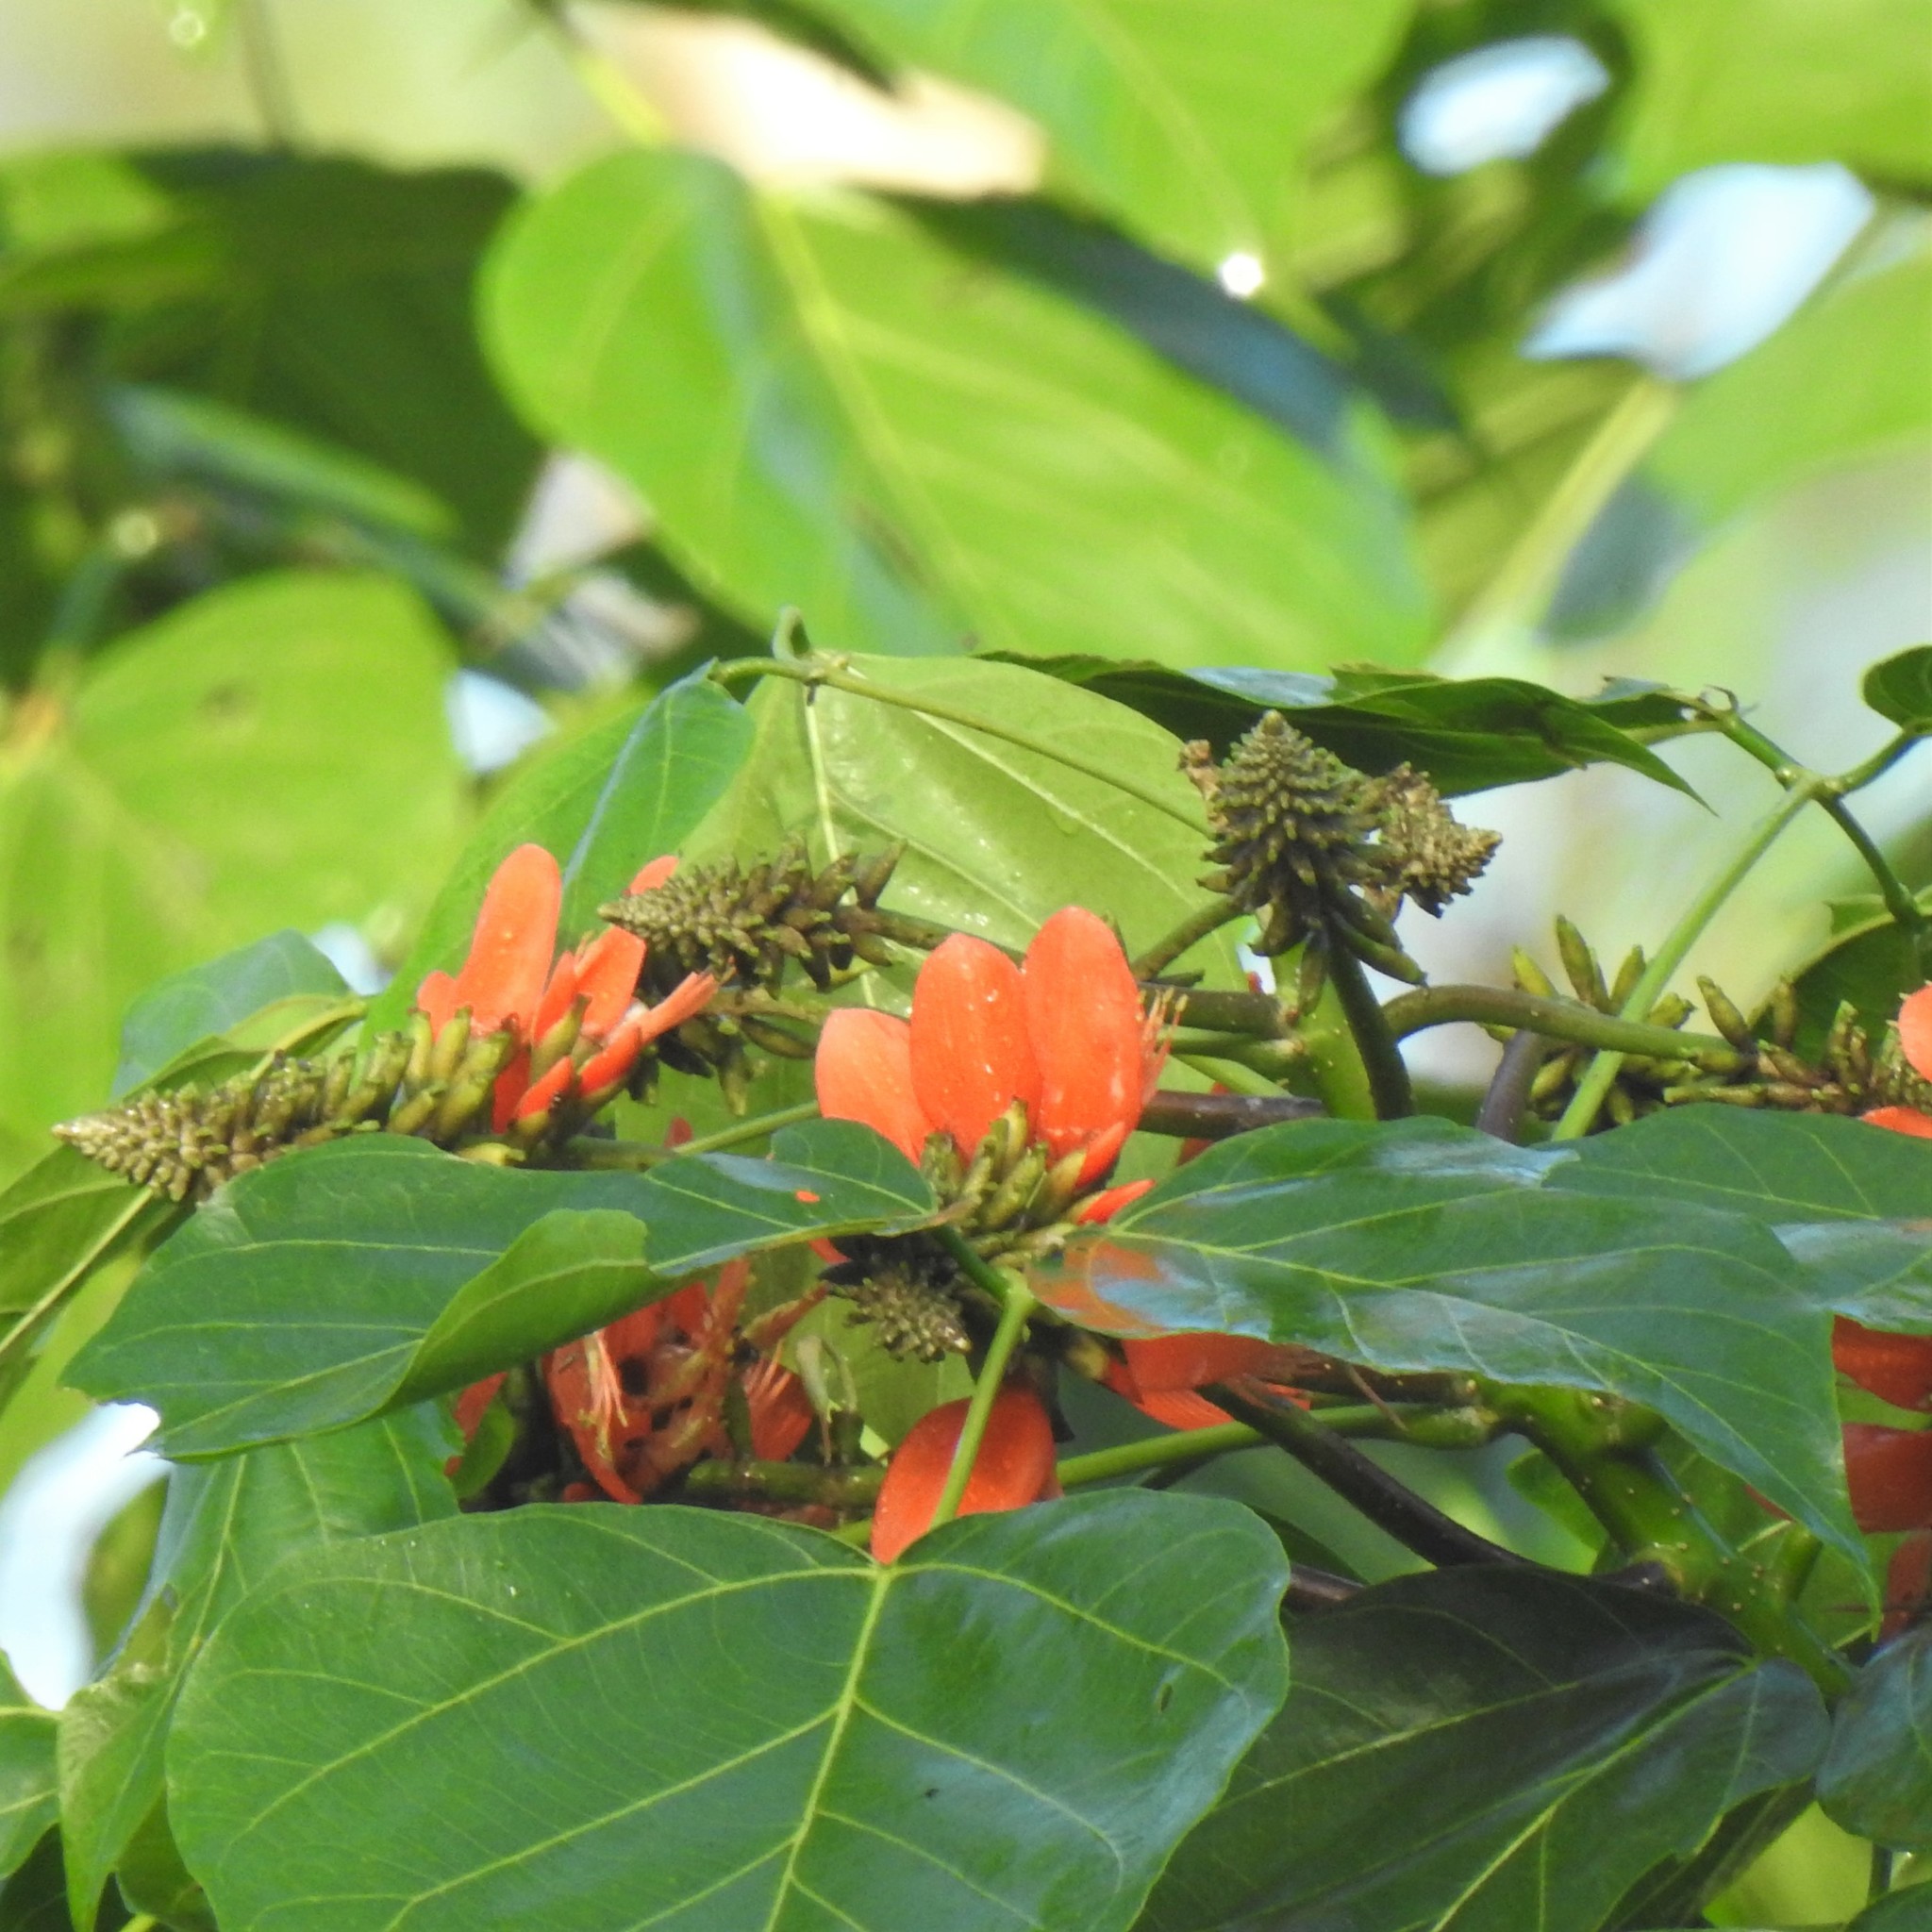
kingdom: Plantae
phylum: Tracheophyta
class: Magnoliopsida
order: Fabales
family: Fabaceae
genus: Erythrina
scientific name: Erythrina subumbrans
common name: December-tree
